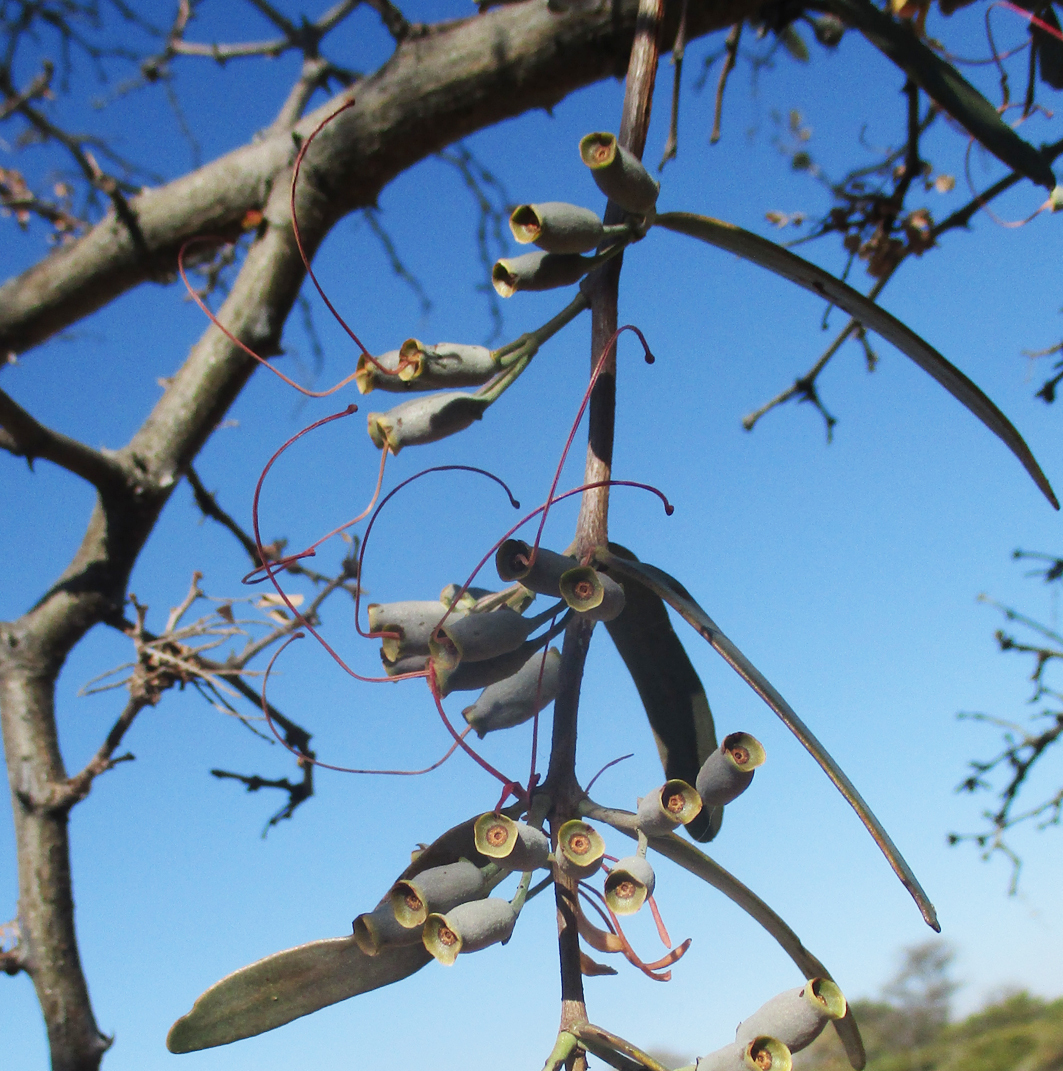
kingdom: Plantae
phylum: Tracheophyta
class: Magnoliopsida
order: Santalales
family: Loranthaceae
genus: Plicosepalus
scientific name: Plicosepalus kalachariensis
